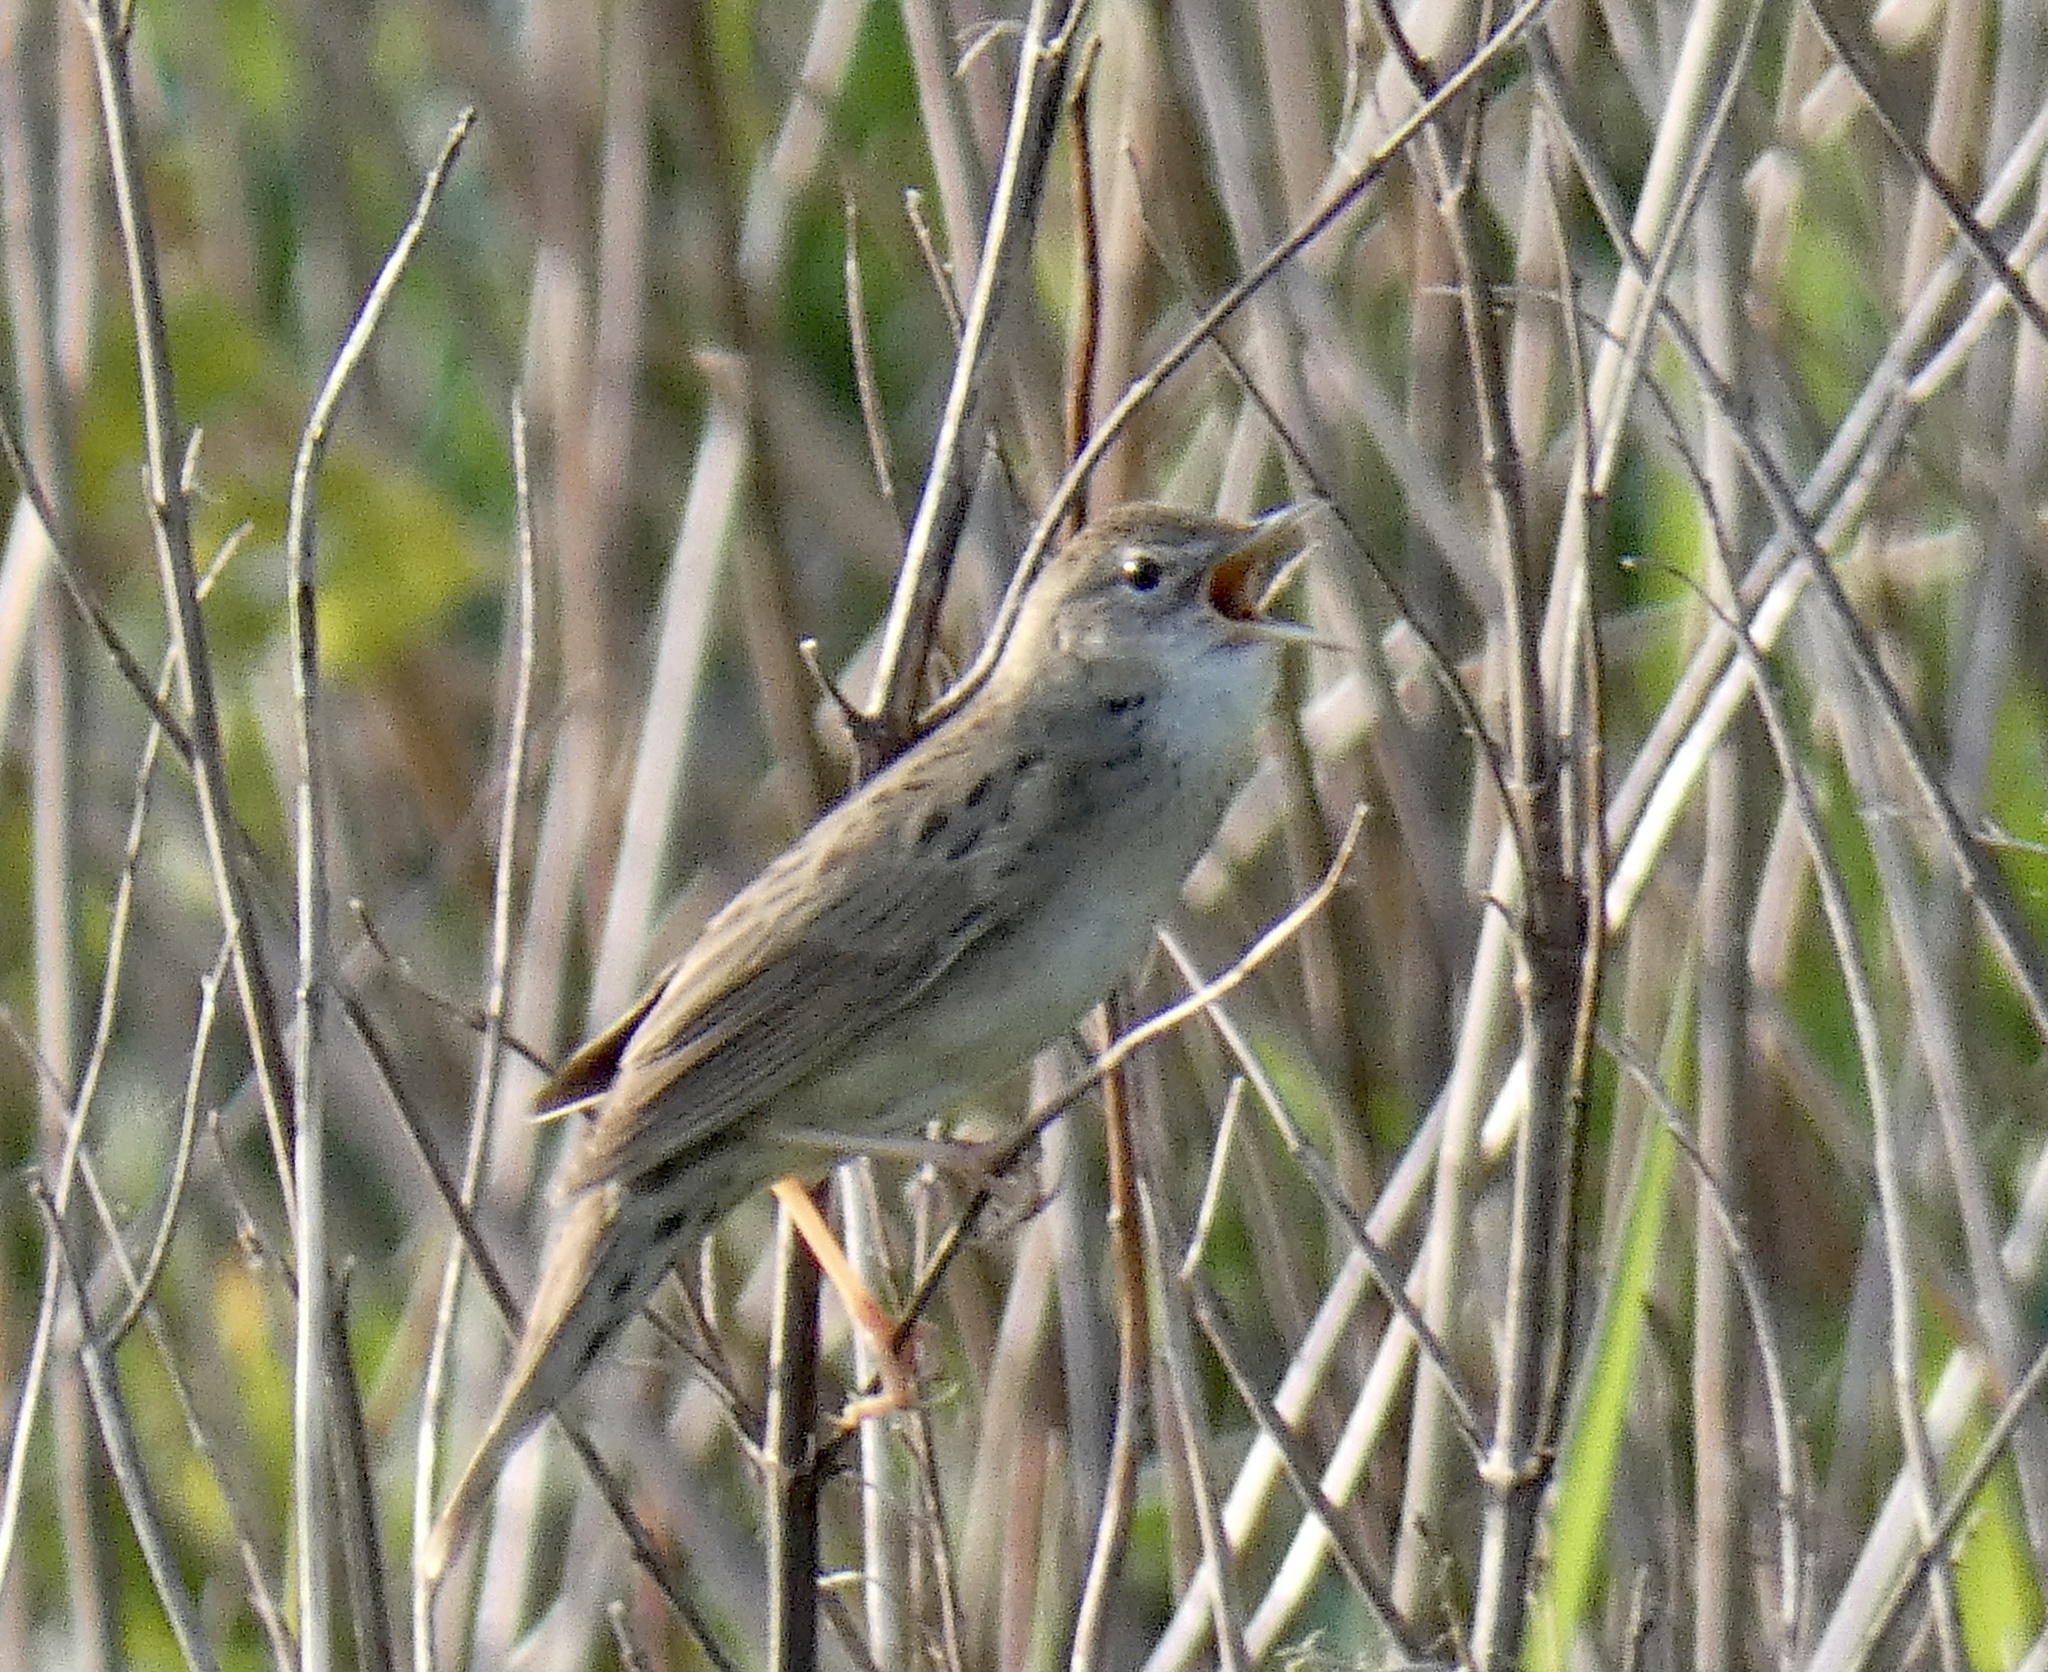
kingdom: Animalia
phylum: Chordata
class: Aves
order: Passeriformes
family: Locustellidae
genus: Locustella
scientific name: Locustella naevia
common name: Common grasshopper warbler
